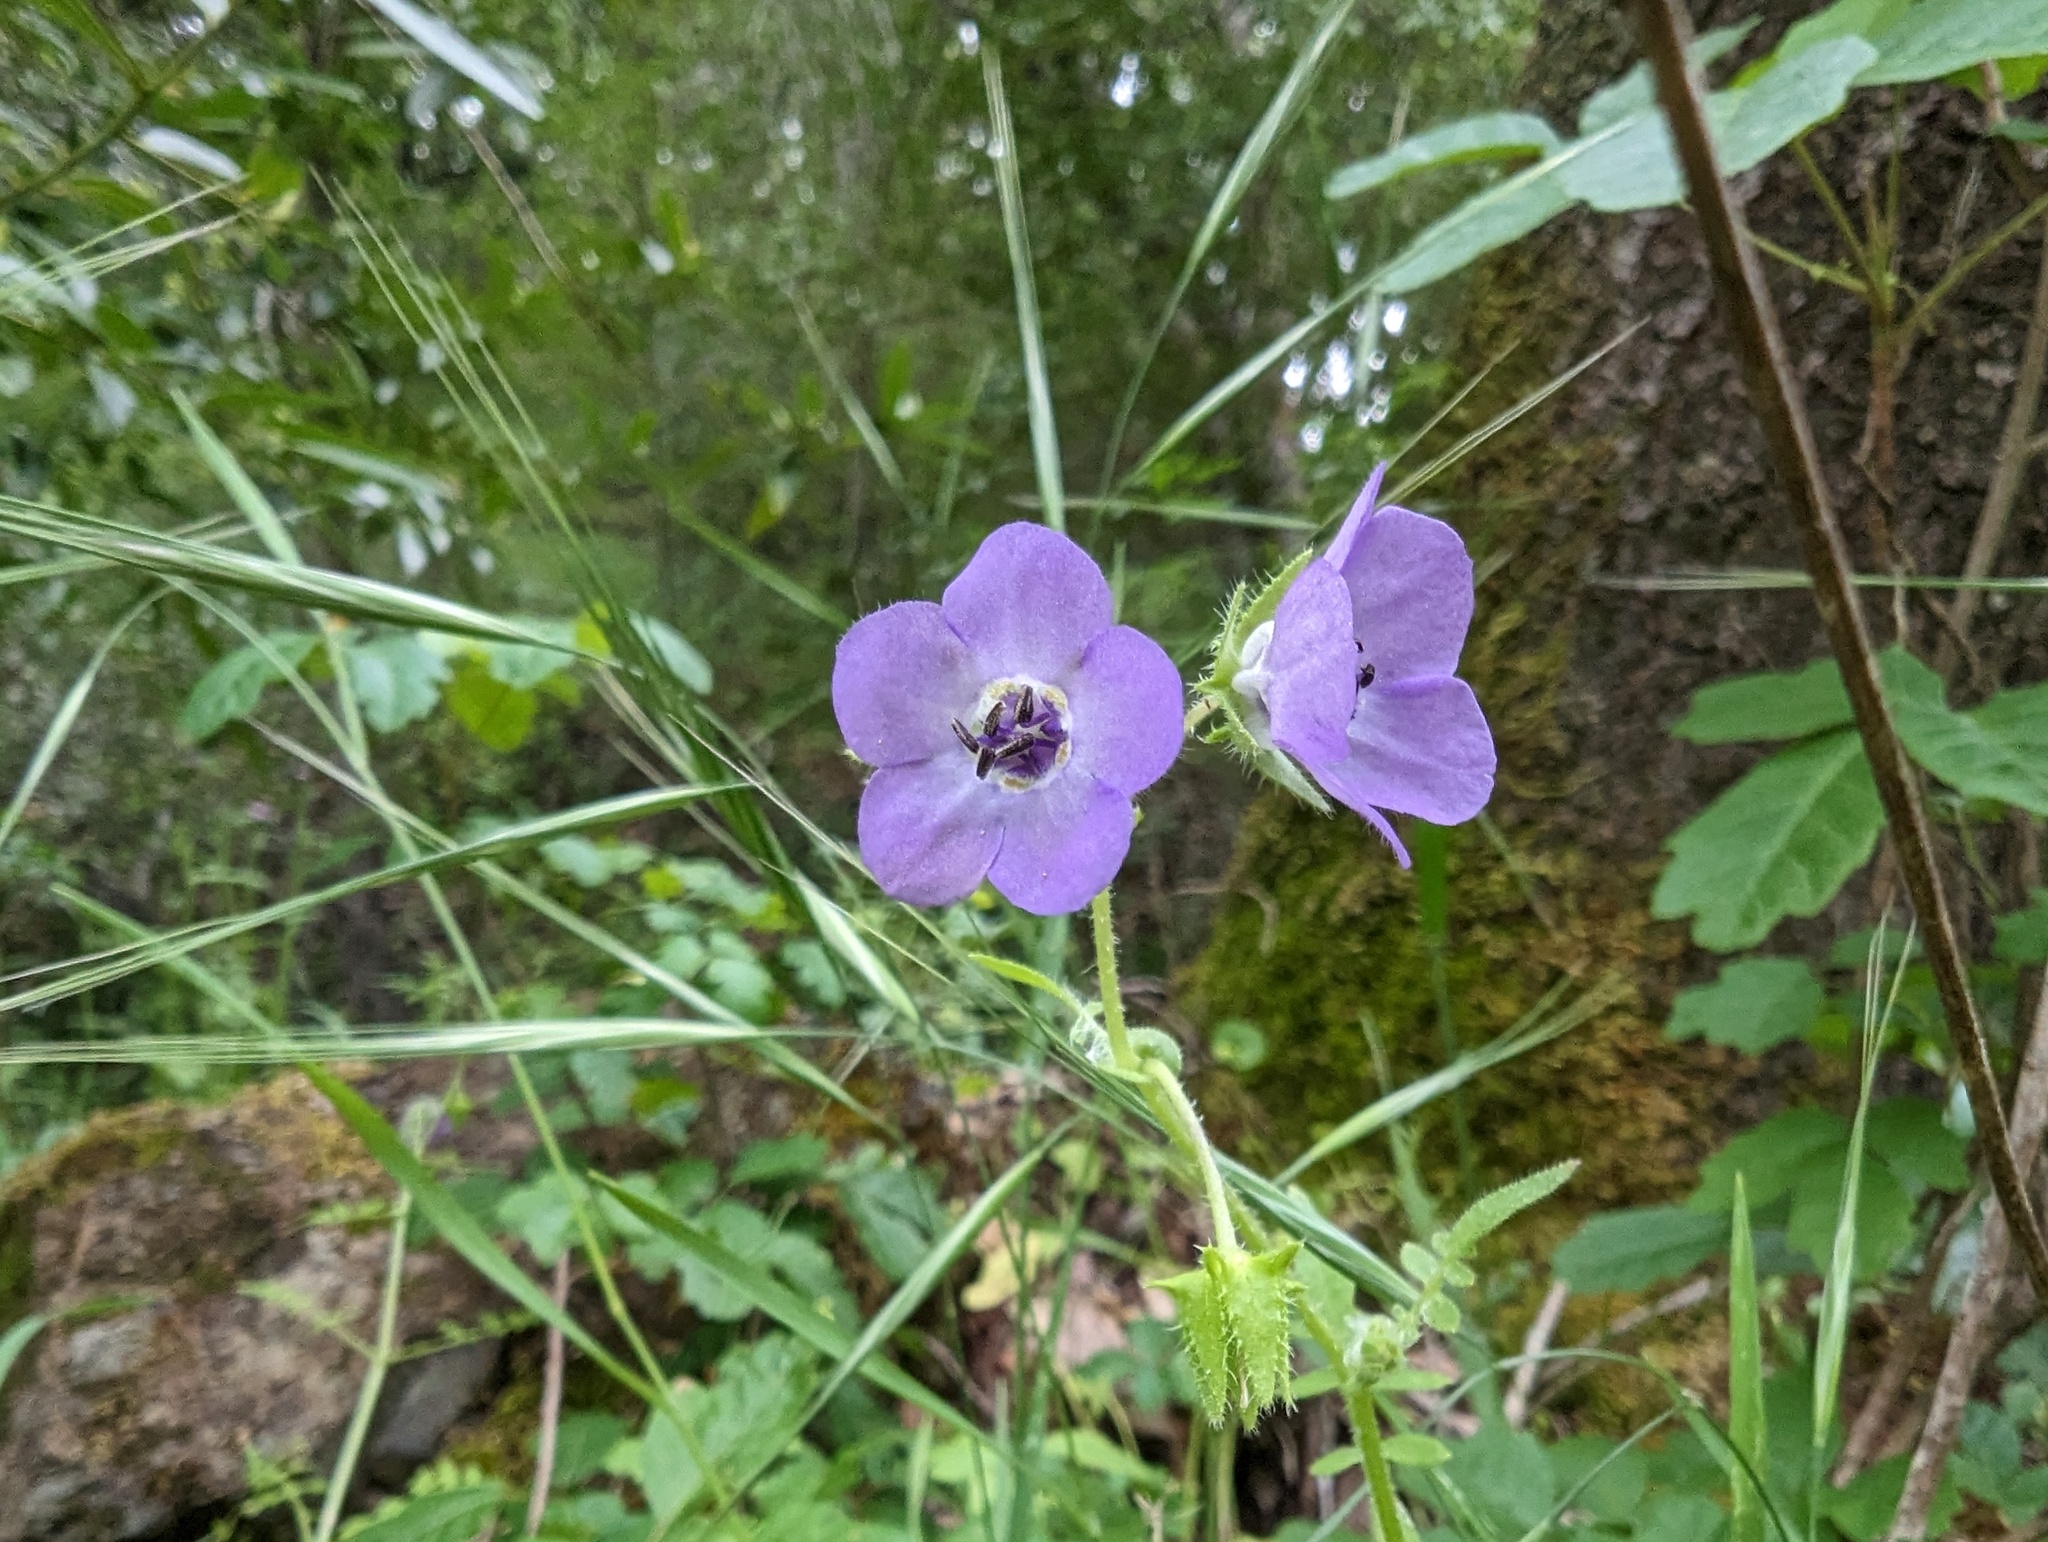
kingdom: Plantae
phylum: Tracheophyta
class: Magnoliopsida
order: Boraginales
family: Hydrophyllaceae
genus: Pholistoma
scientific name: Pholistoma auritum
